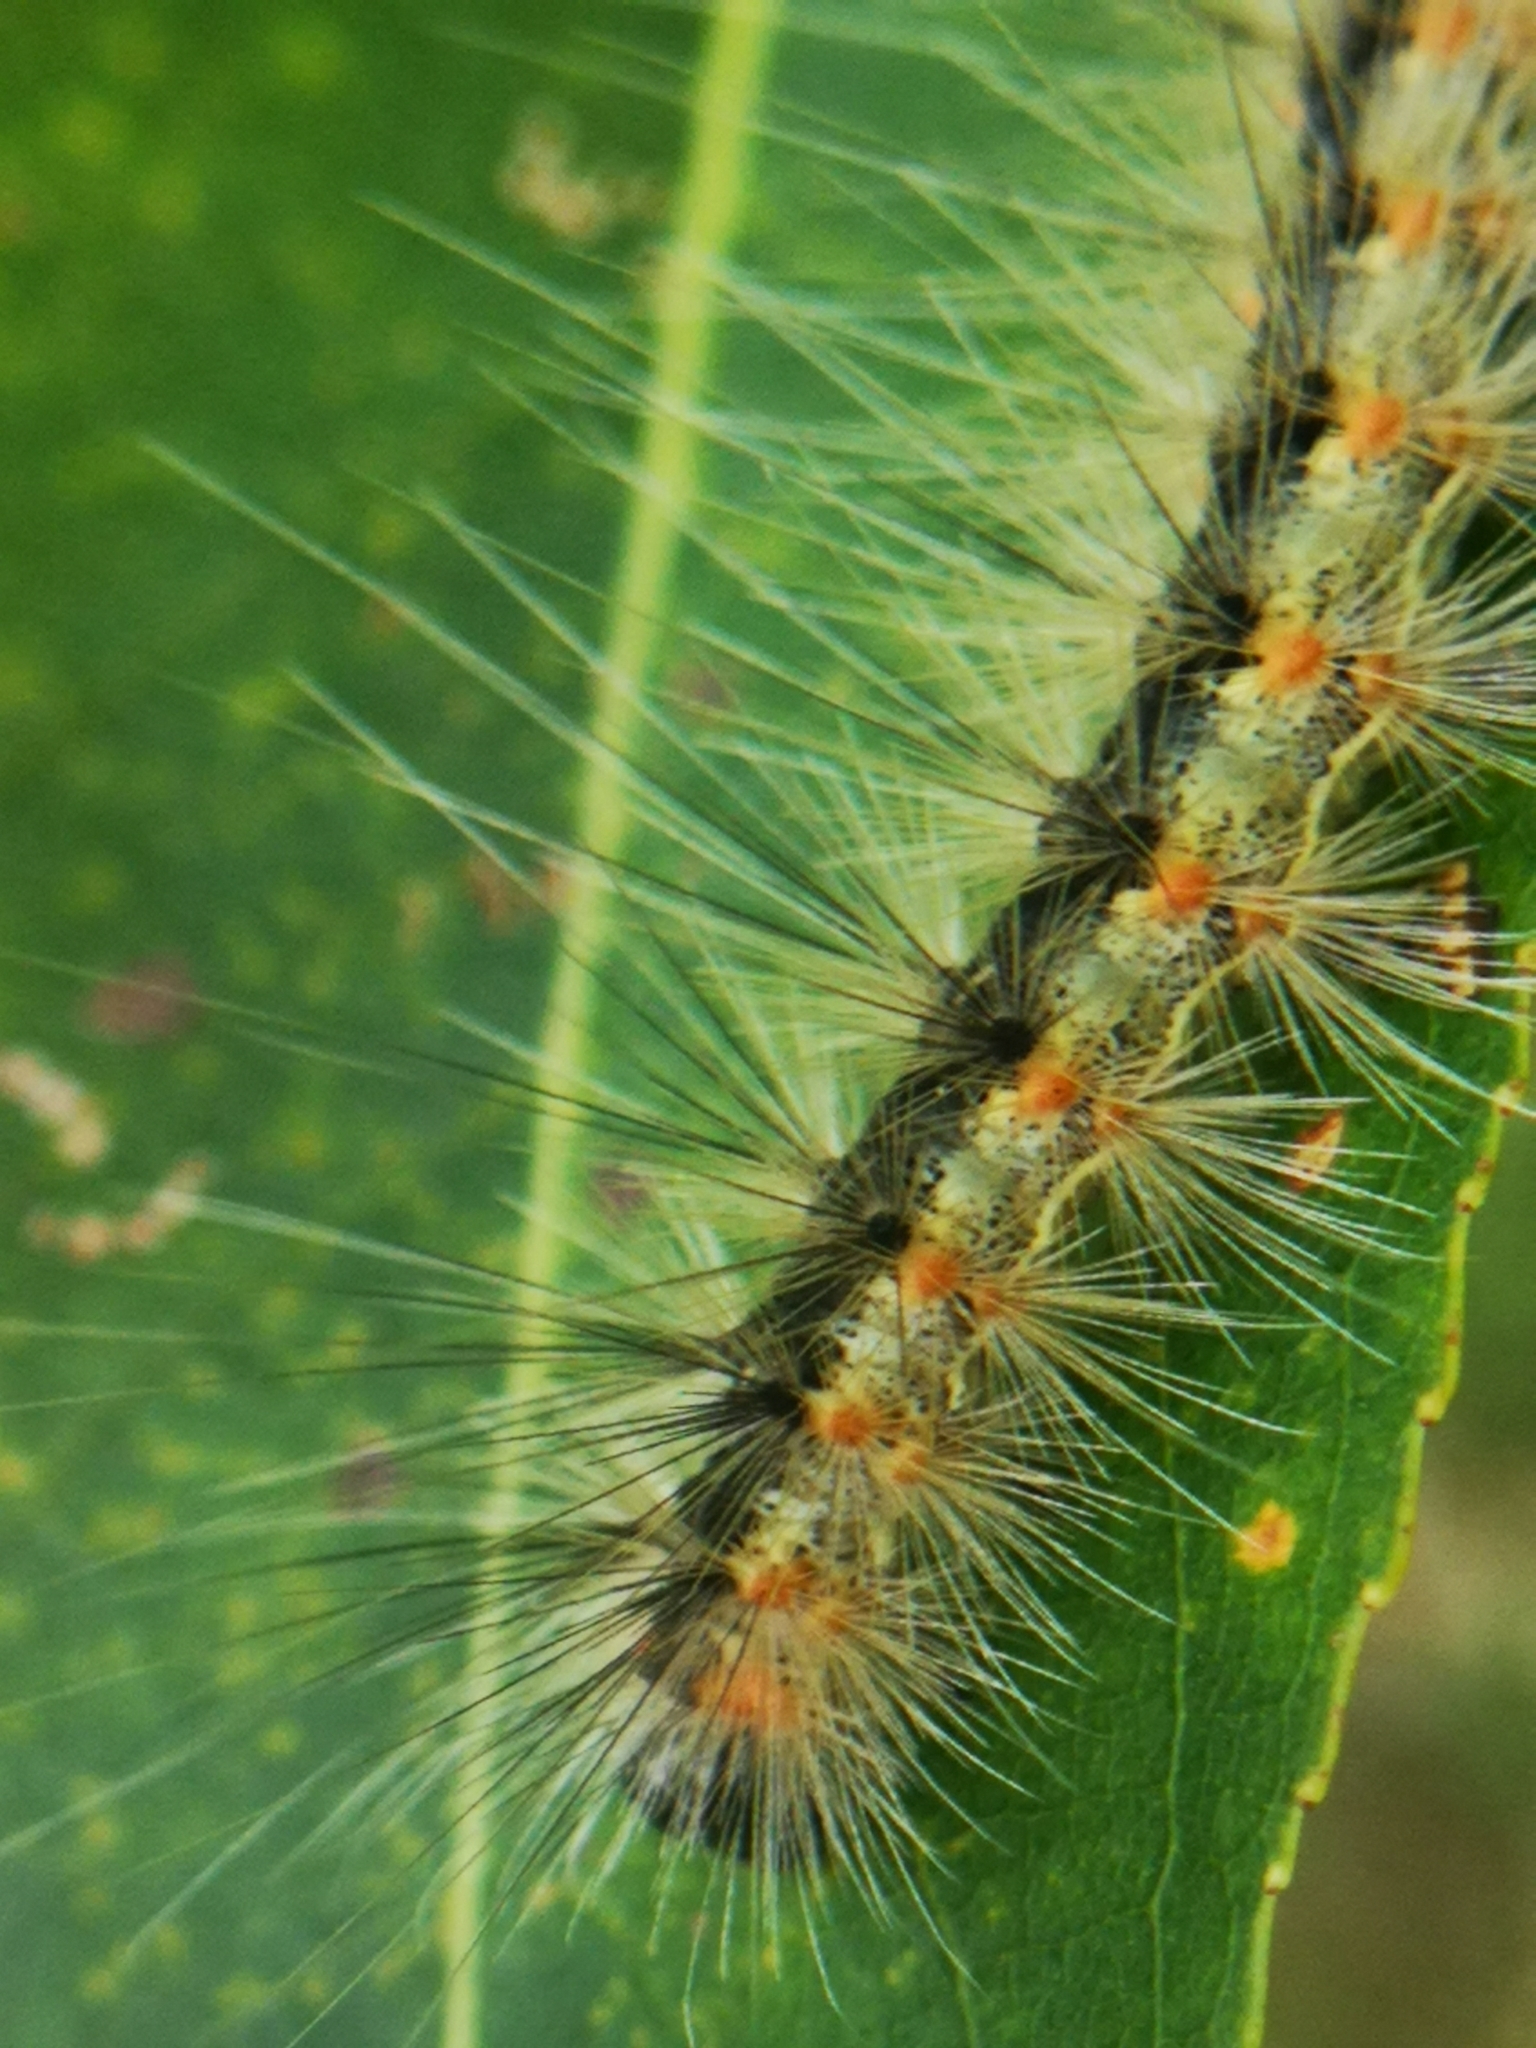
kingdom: Animalia
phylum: Arthropoda
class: Insecta
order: Lepidoptera
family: Erebidae
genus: Hyphantria
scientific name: Hyphantria cunea
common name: American white moth
